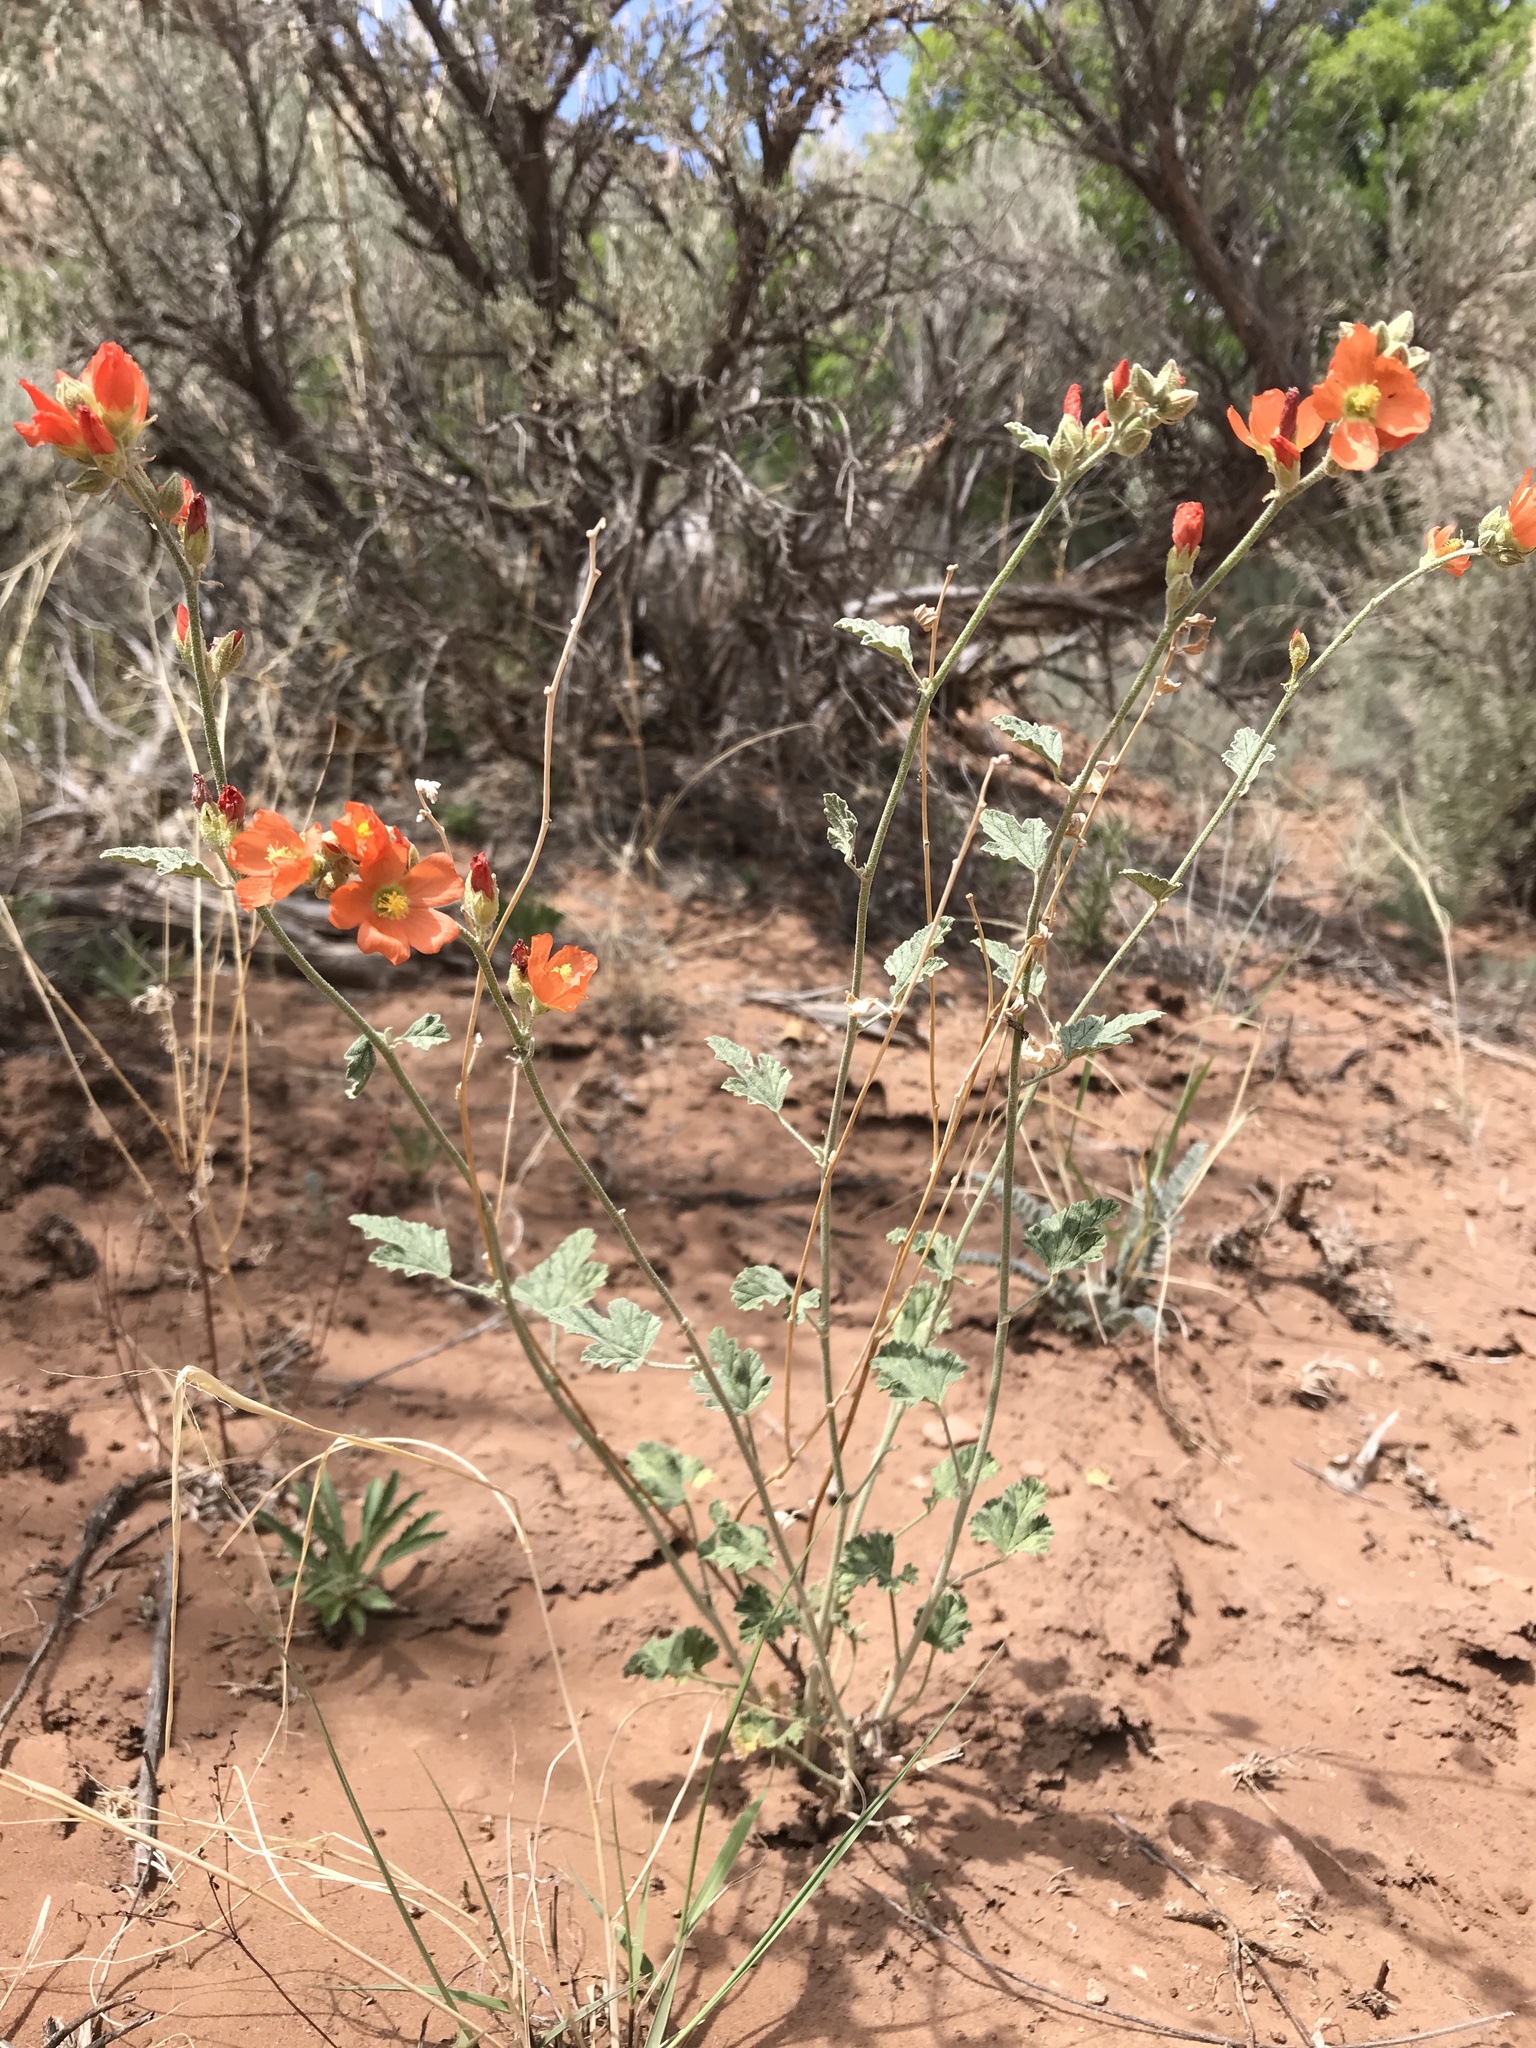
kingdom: Plantae
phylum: Tracheophyta
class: Magnoliopsida
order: Malvales
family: Malvaceae
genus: Sphaeralcea
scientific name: Sphaeralcea parvifolia
